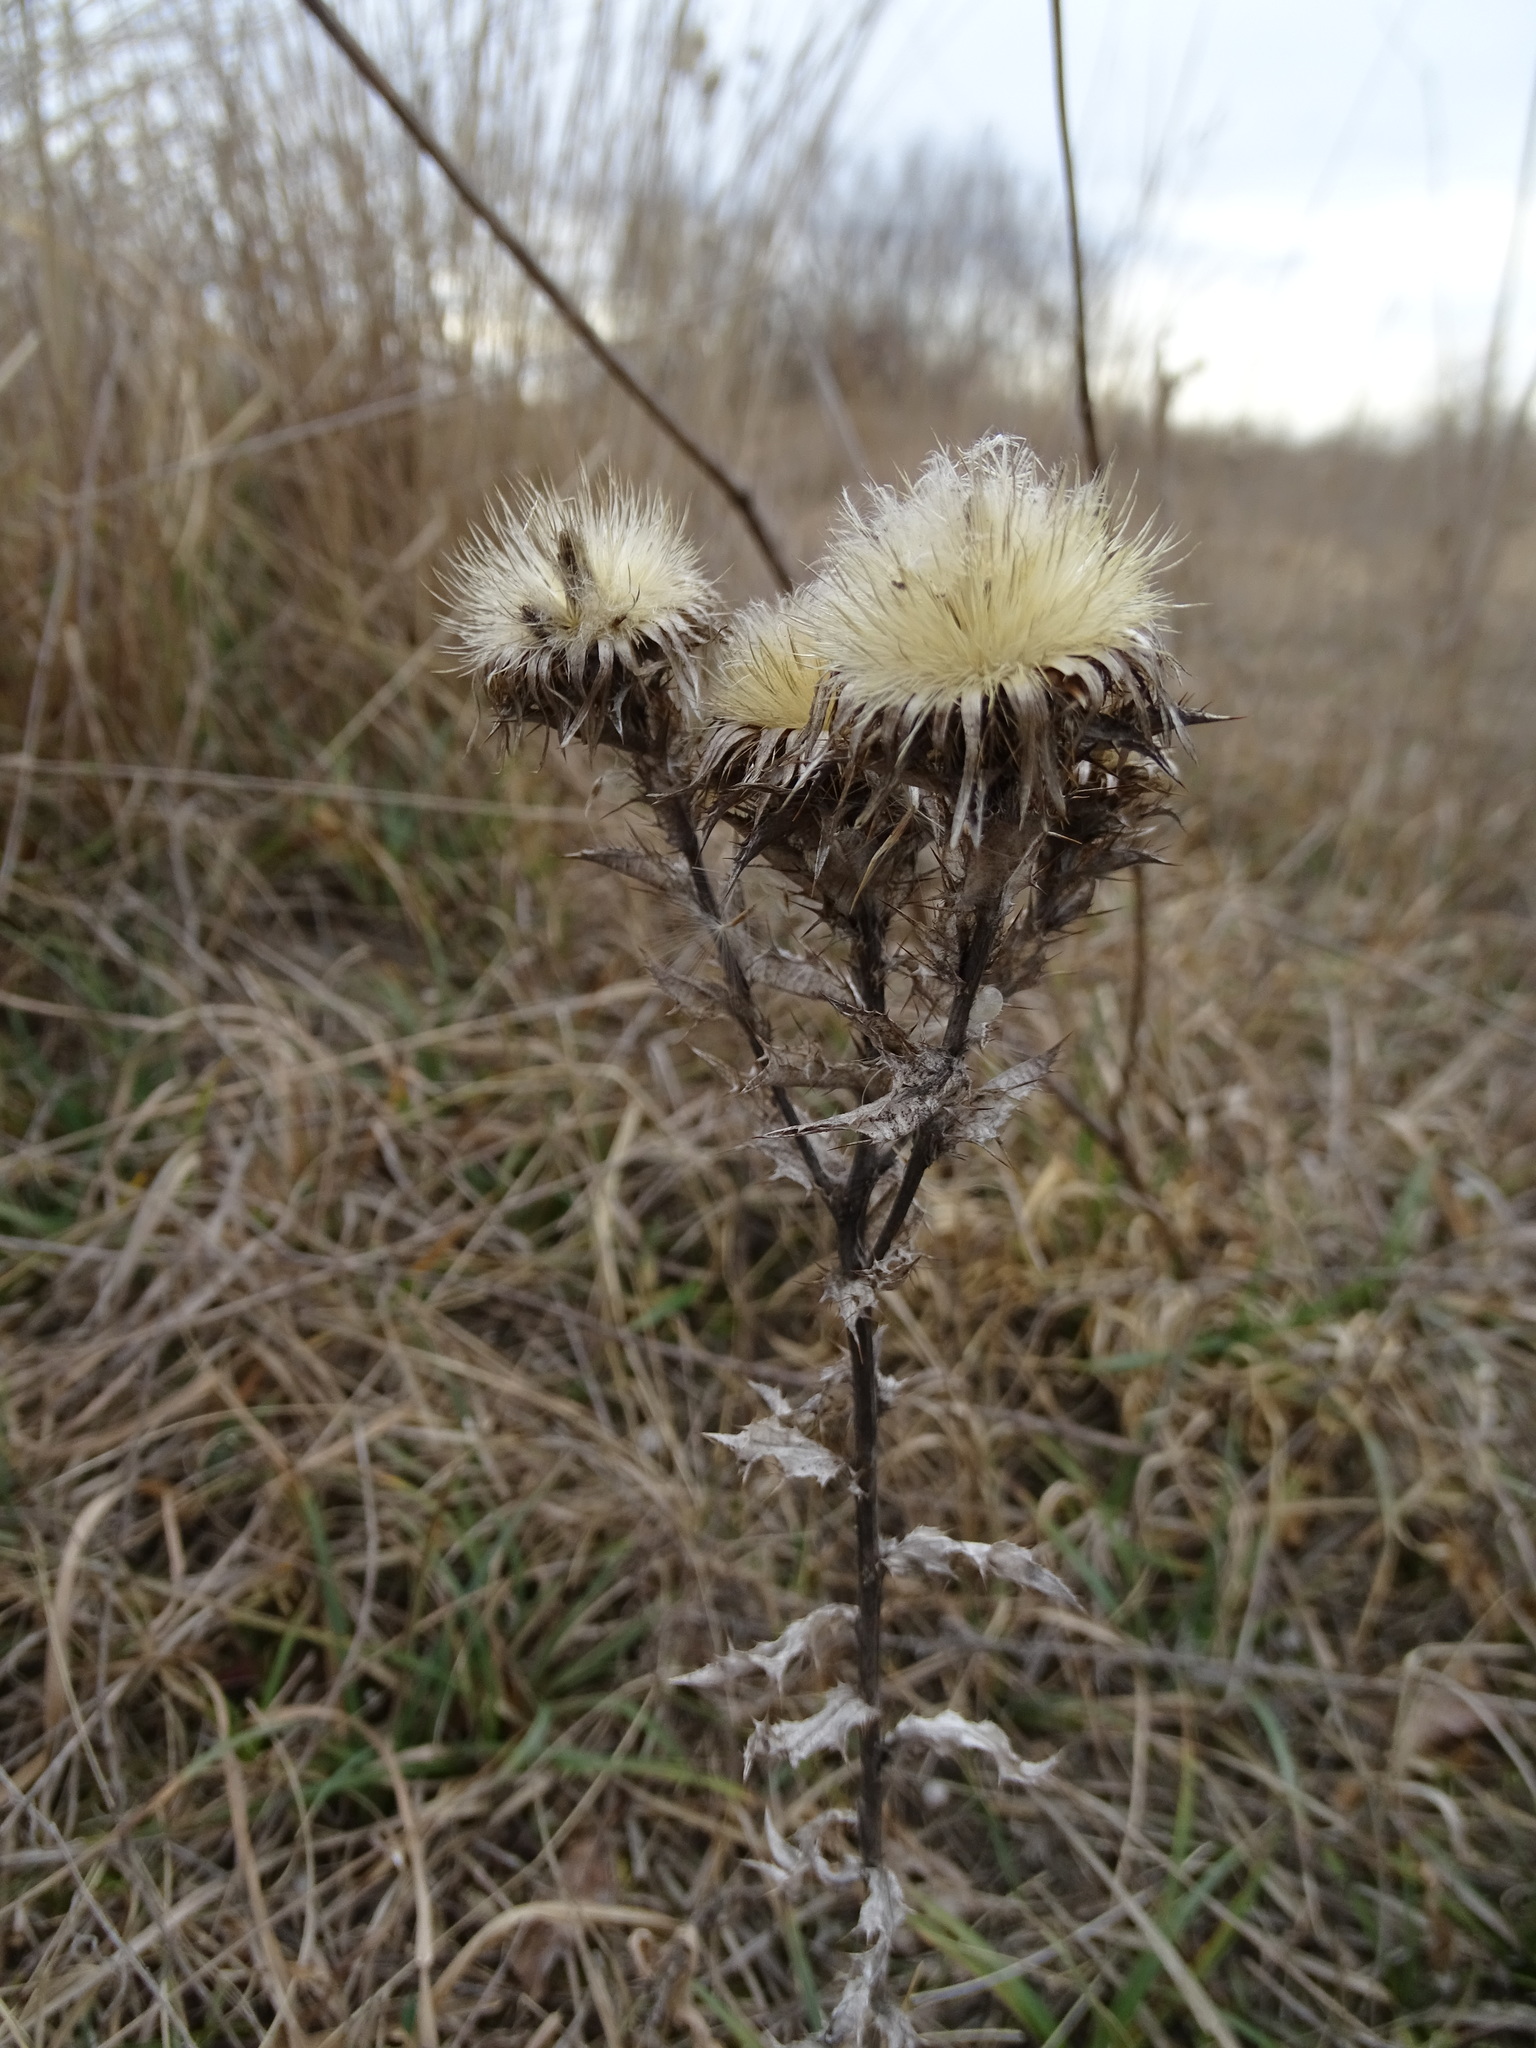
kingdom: Plantae
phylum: Tracheophyta
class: Magnoliopsida
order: Asterales
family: Asteraceae
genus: Carlina
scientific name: Carlina vulgaris
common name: Carline thistle
